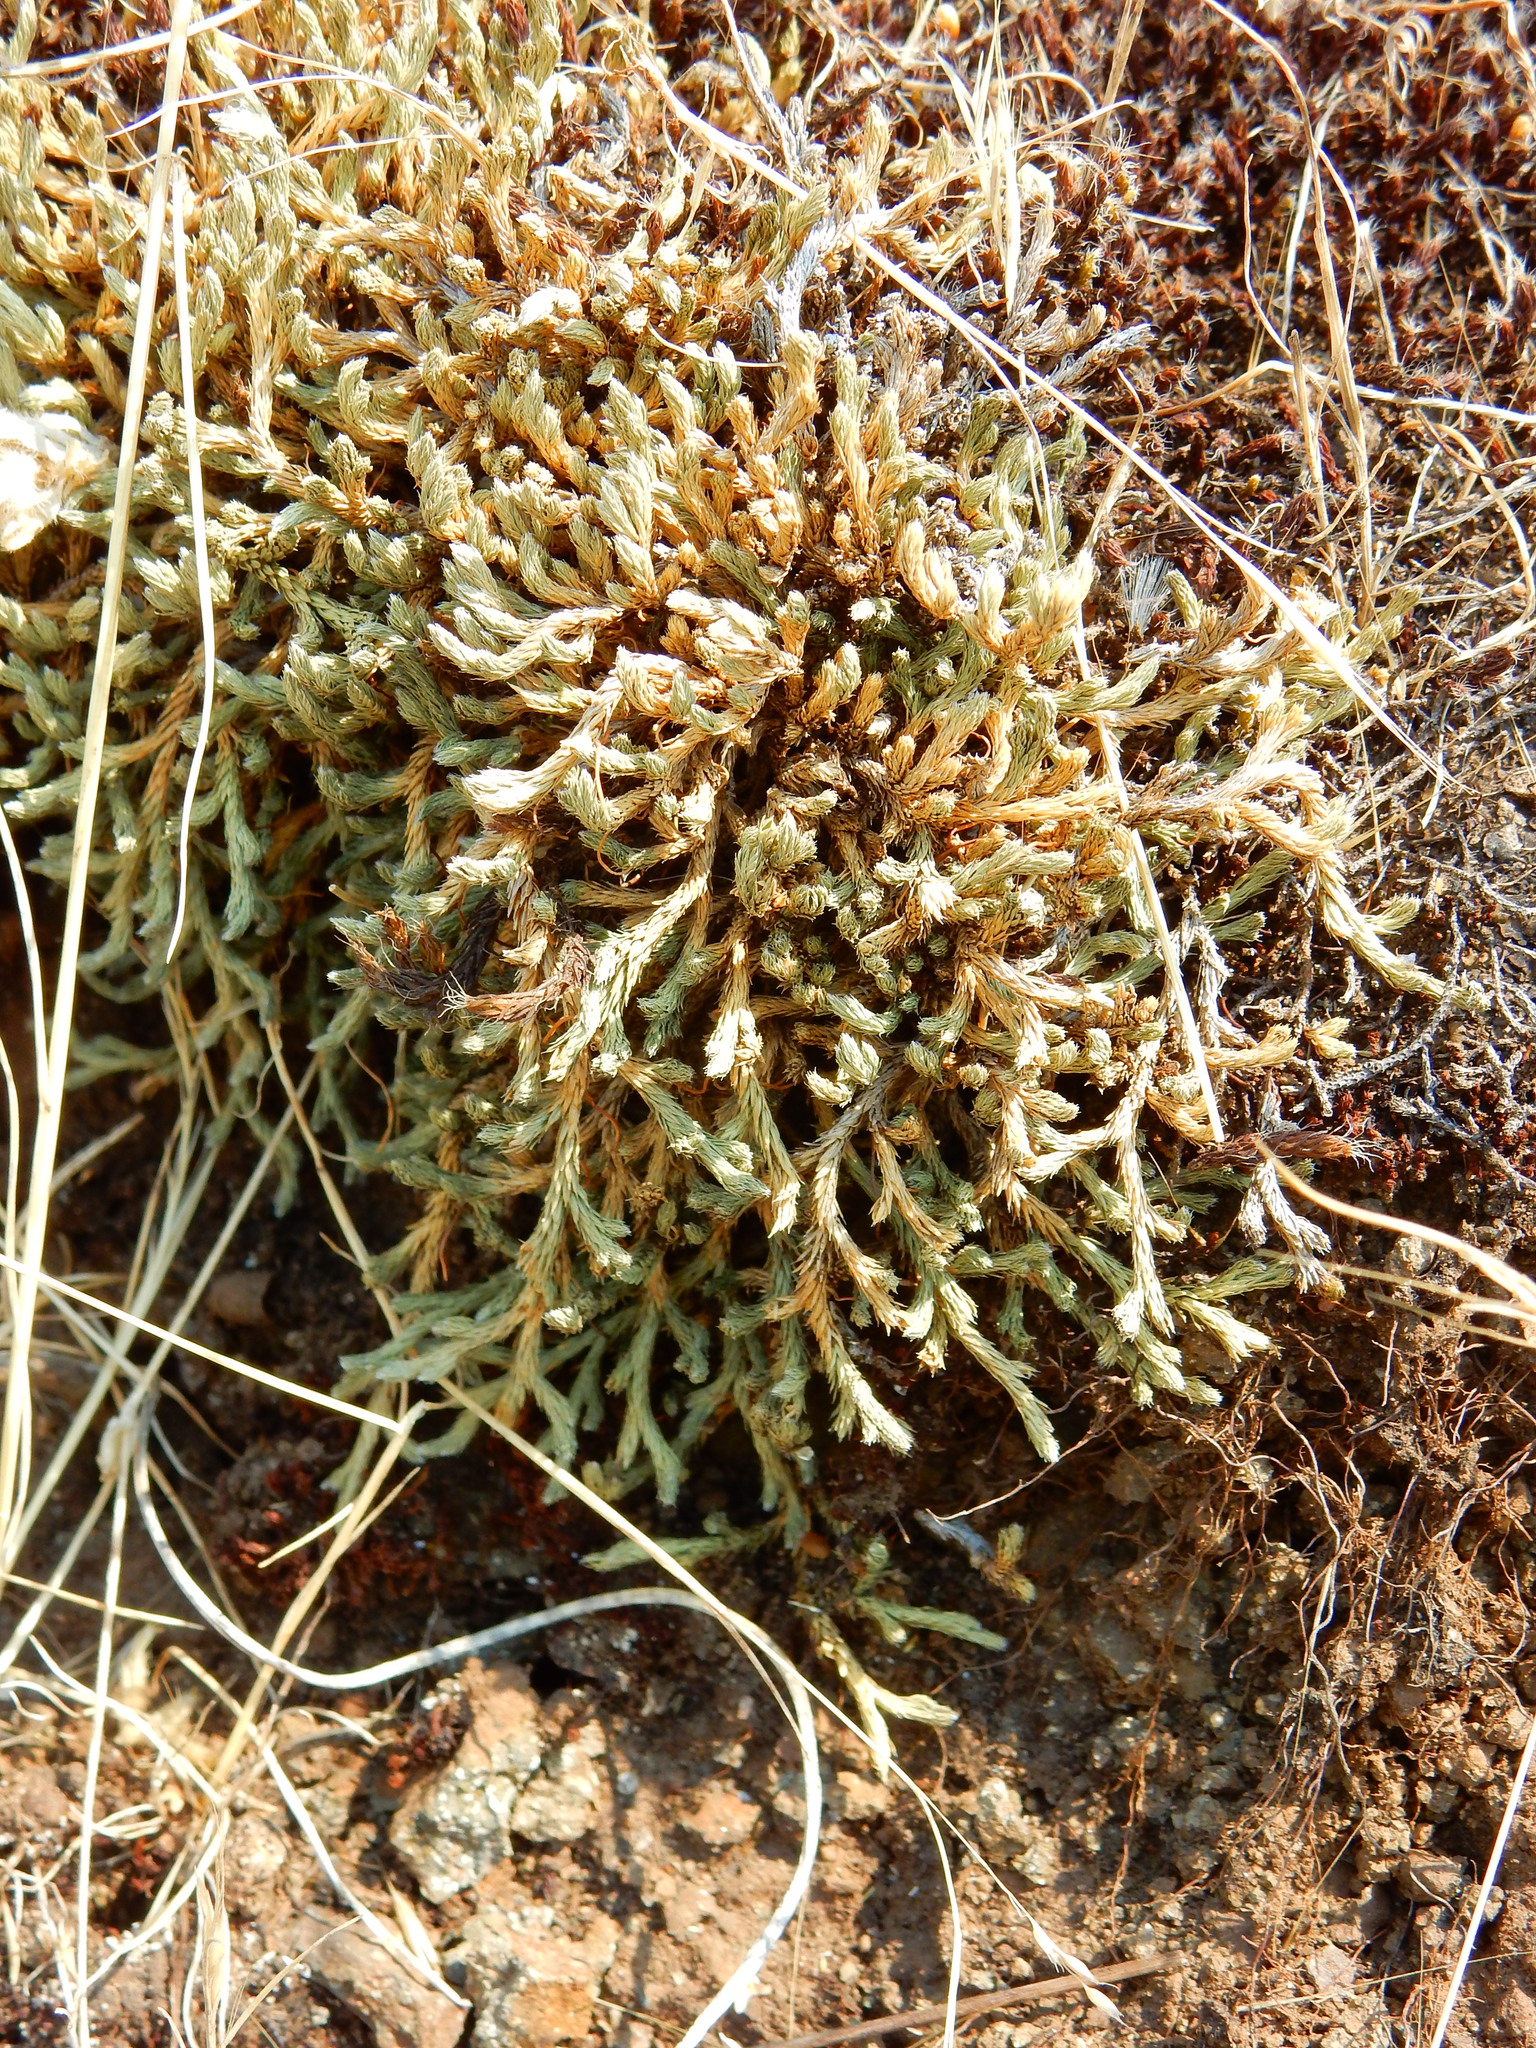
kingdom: Plantae
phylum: Tracheophyta
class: Lycopodiopsida
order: Selaginellales
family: Selaginellaceae
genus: Selaginella
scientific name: Selaginella wallacei
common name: Wallace's selaginella
